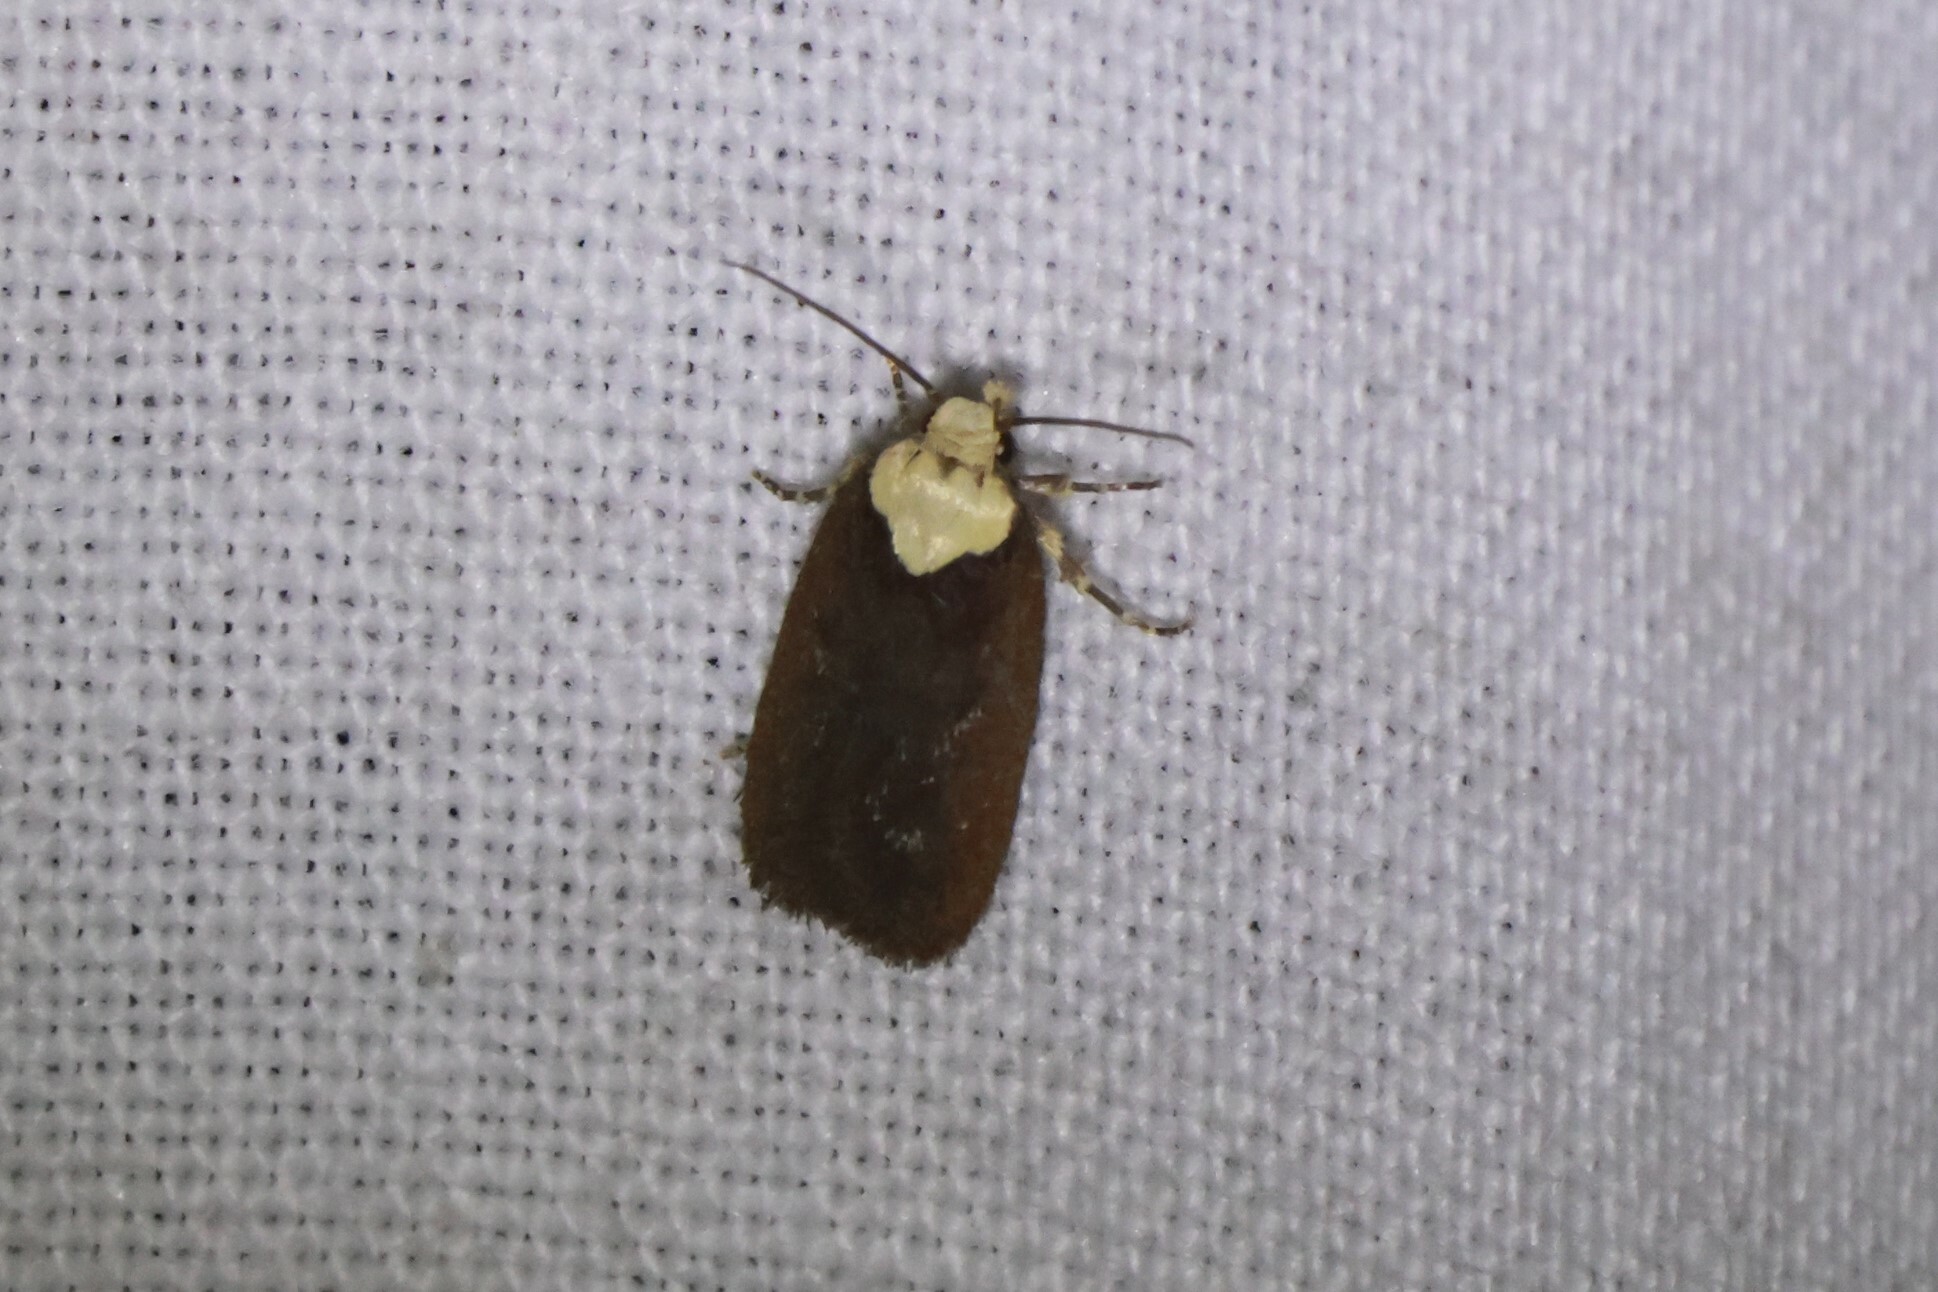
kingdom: Animalia
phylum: Arthropoda
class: Insecta
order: Lepidoptera
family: Depressariidae
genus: Depressaria
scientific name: Depressaria depressana
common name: Lost flat-body
